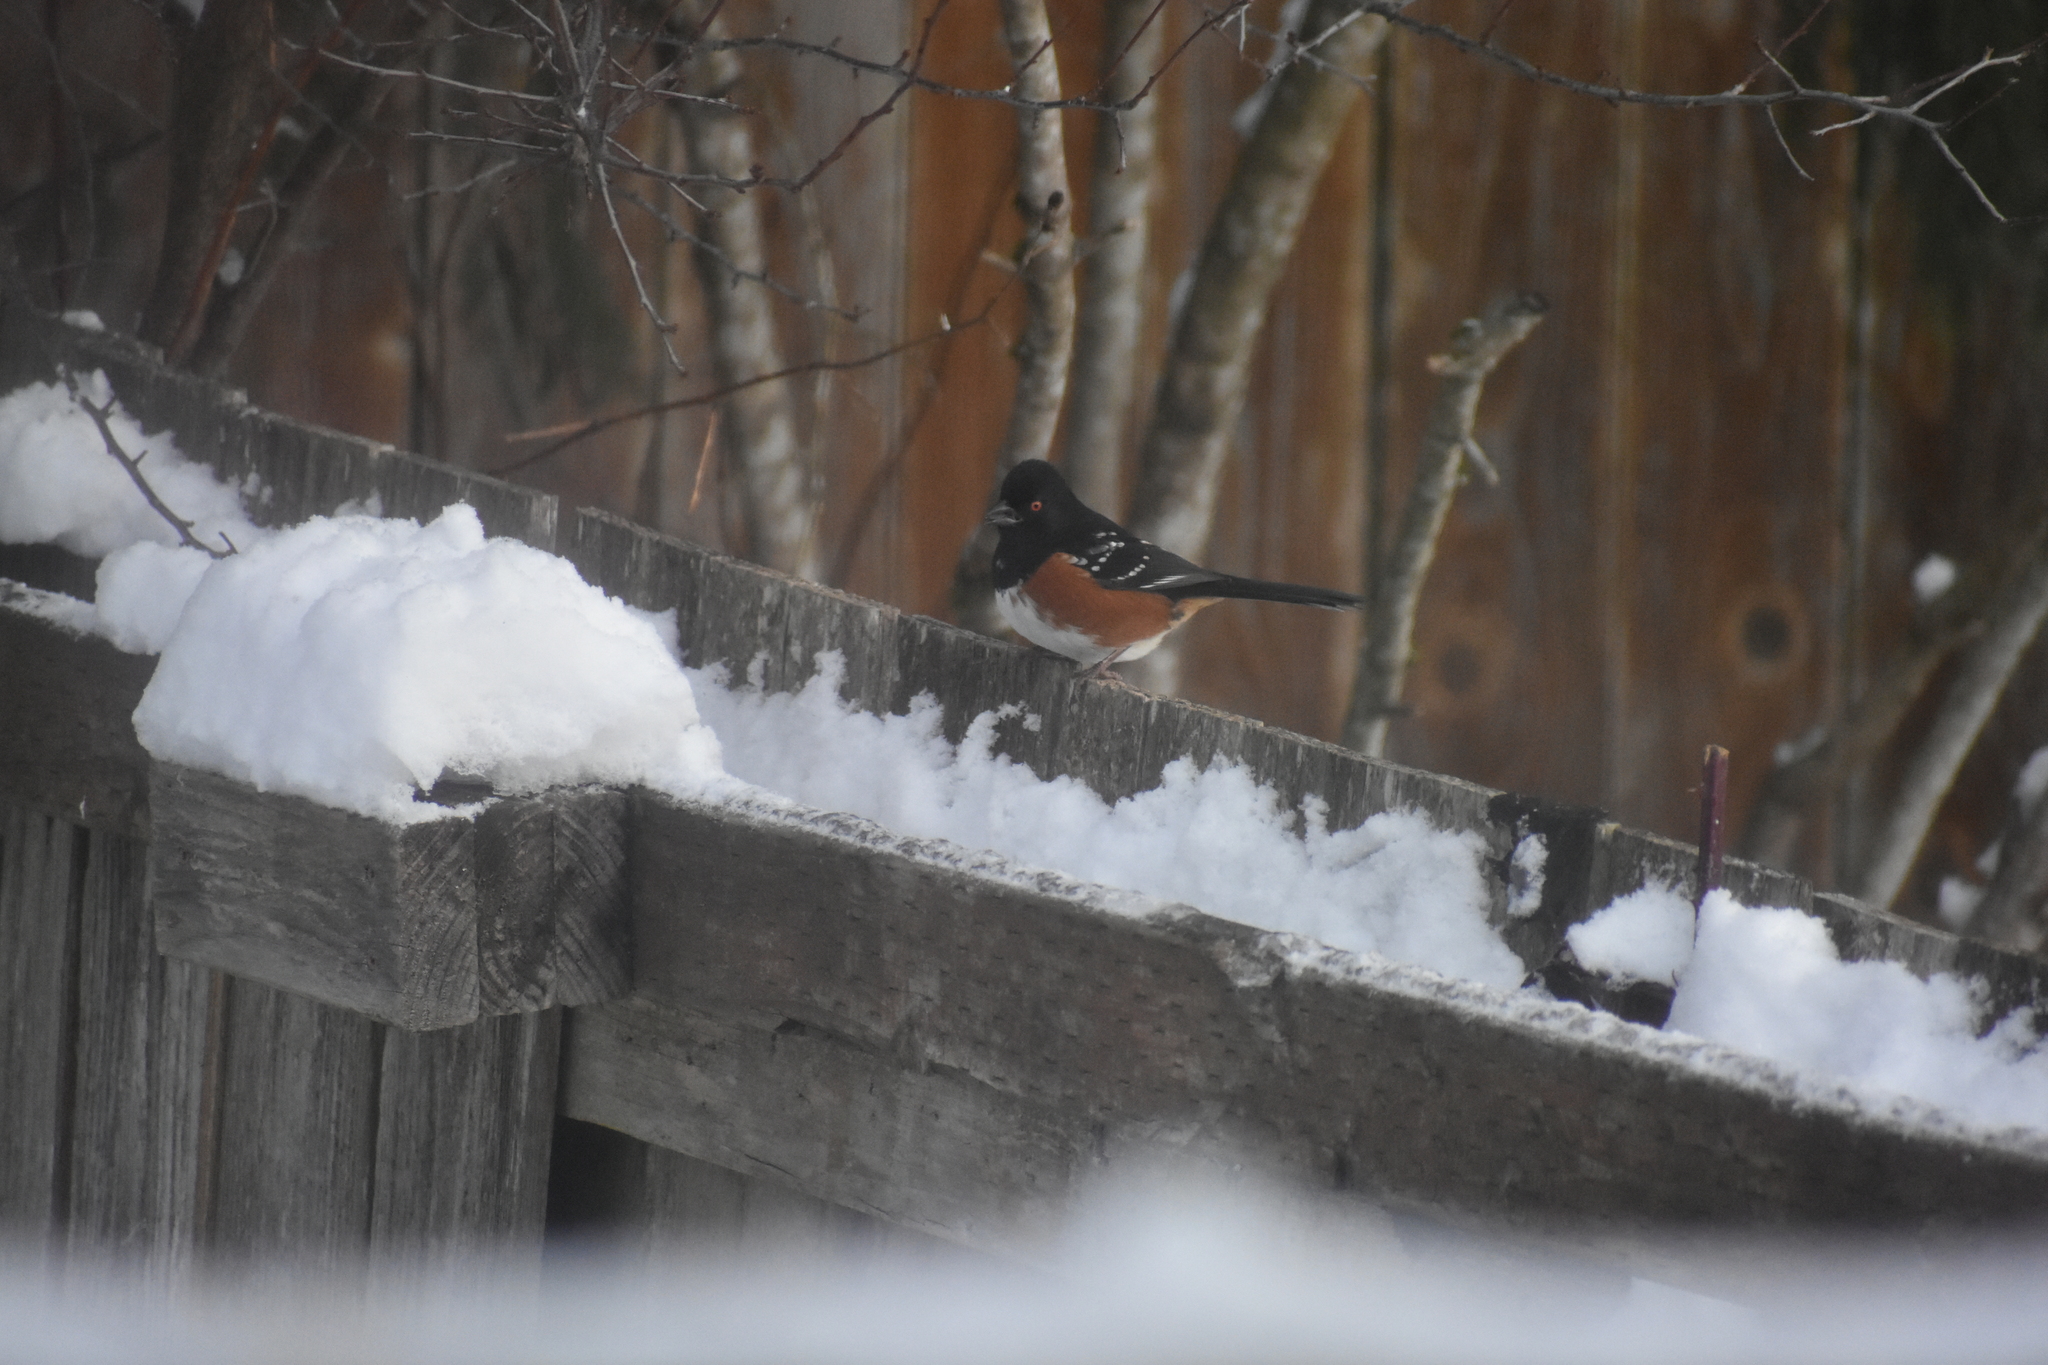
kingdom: Animalia
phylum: Chordata
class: Aves
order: Passeriformes
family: Passerellidae
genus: Pipilo
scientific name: Pipilo maculatus
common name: Spotted towhee
